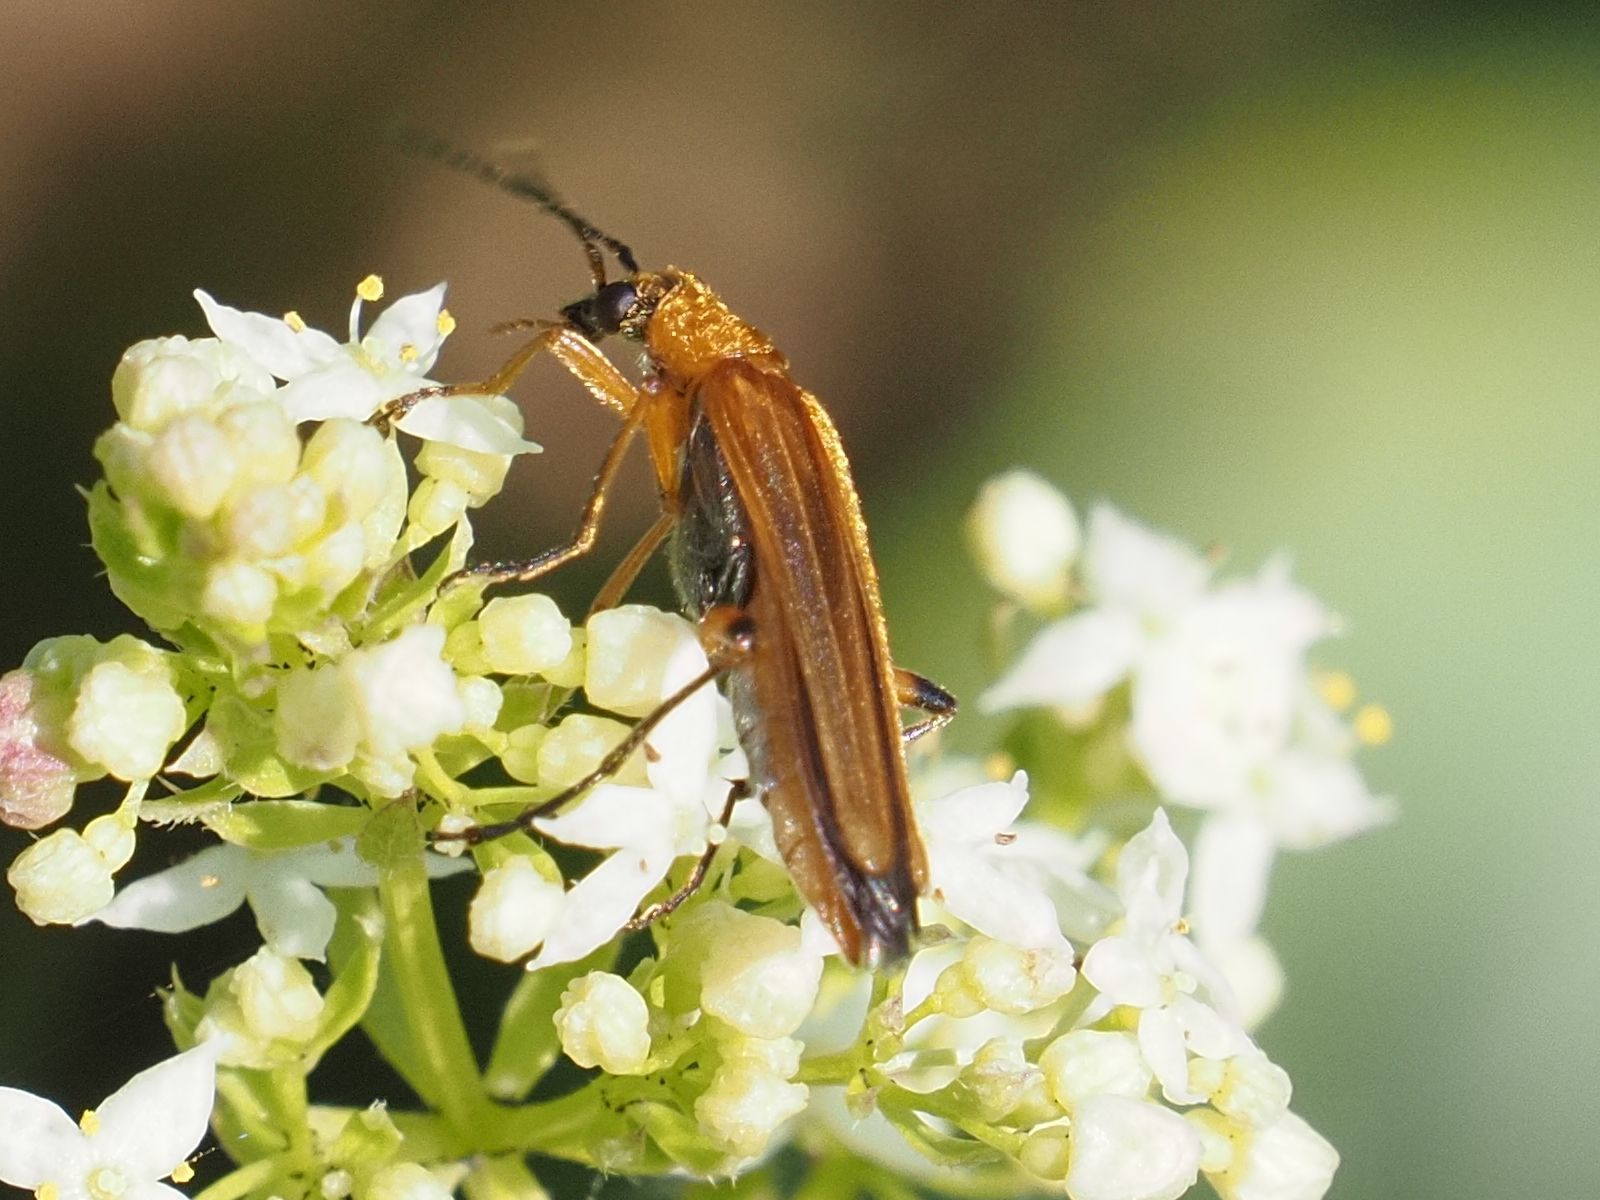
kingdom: Animalia
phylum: Arthropoda
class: Insecta
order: Coleoptera
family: Oedemeridae
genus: Oedemera
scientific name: Oedemera podagrariae
